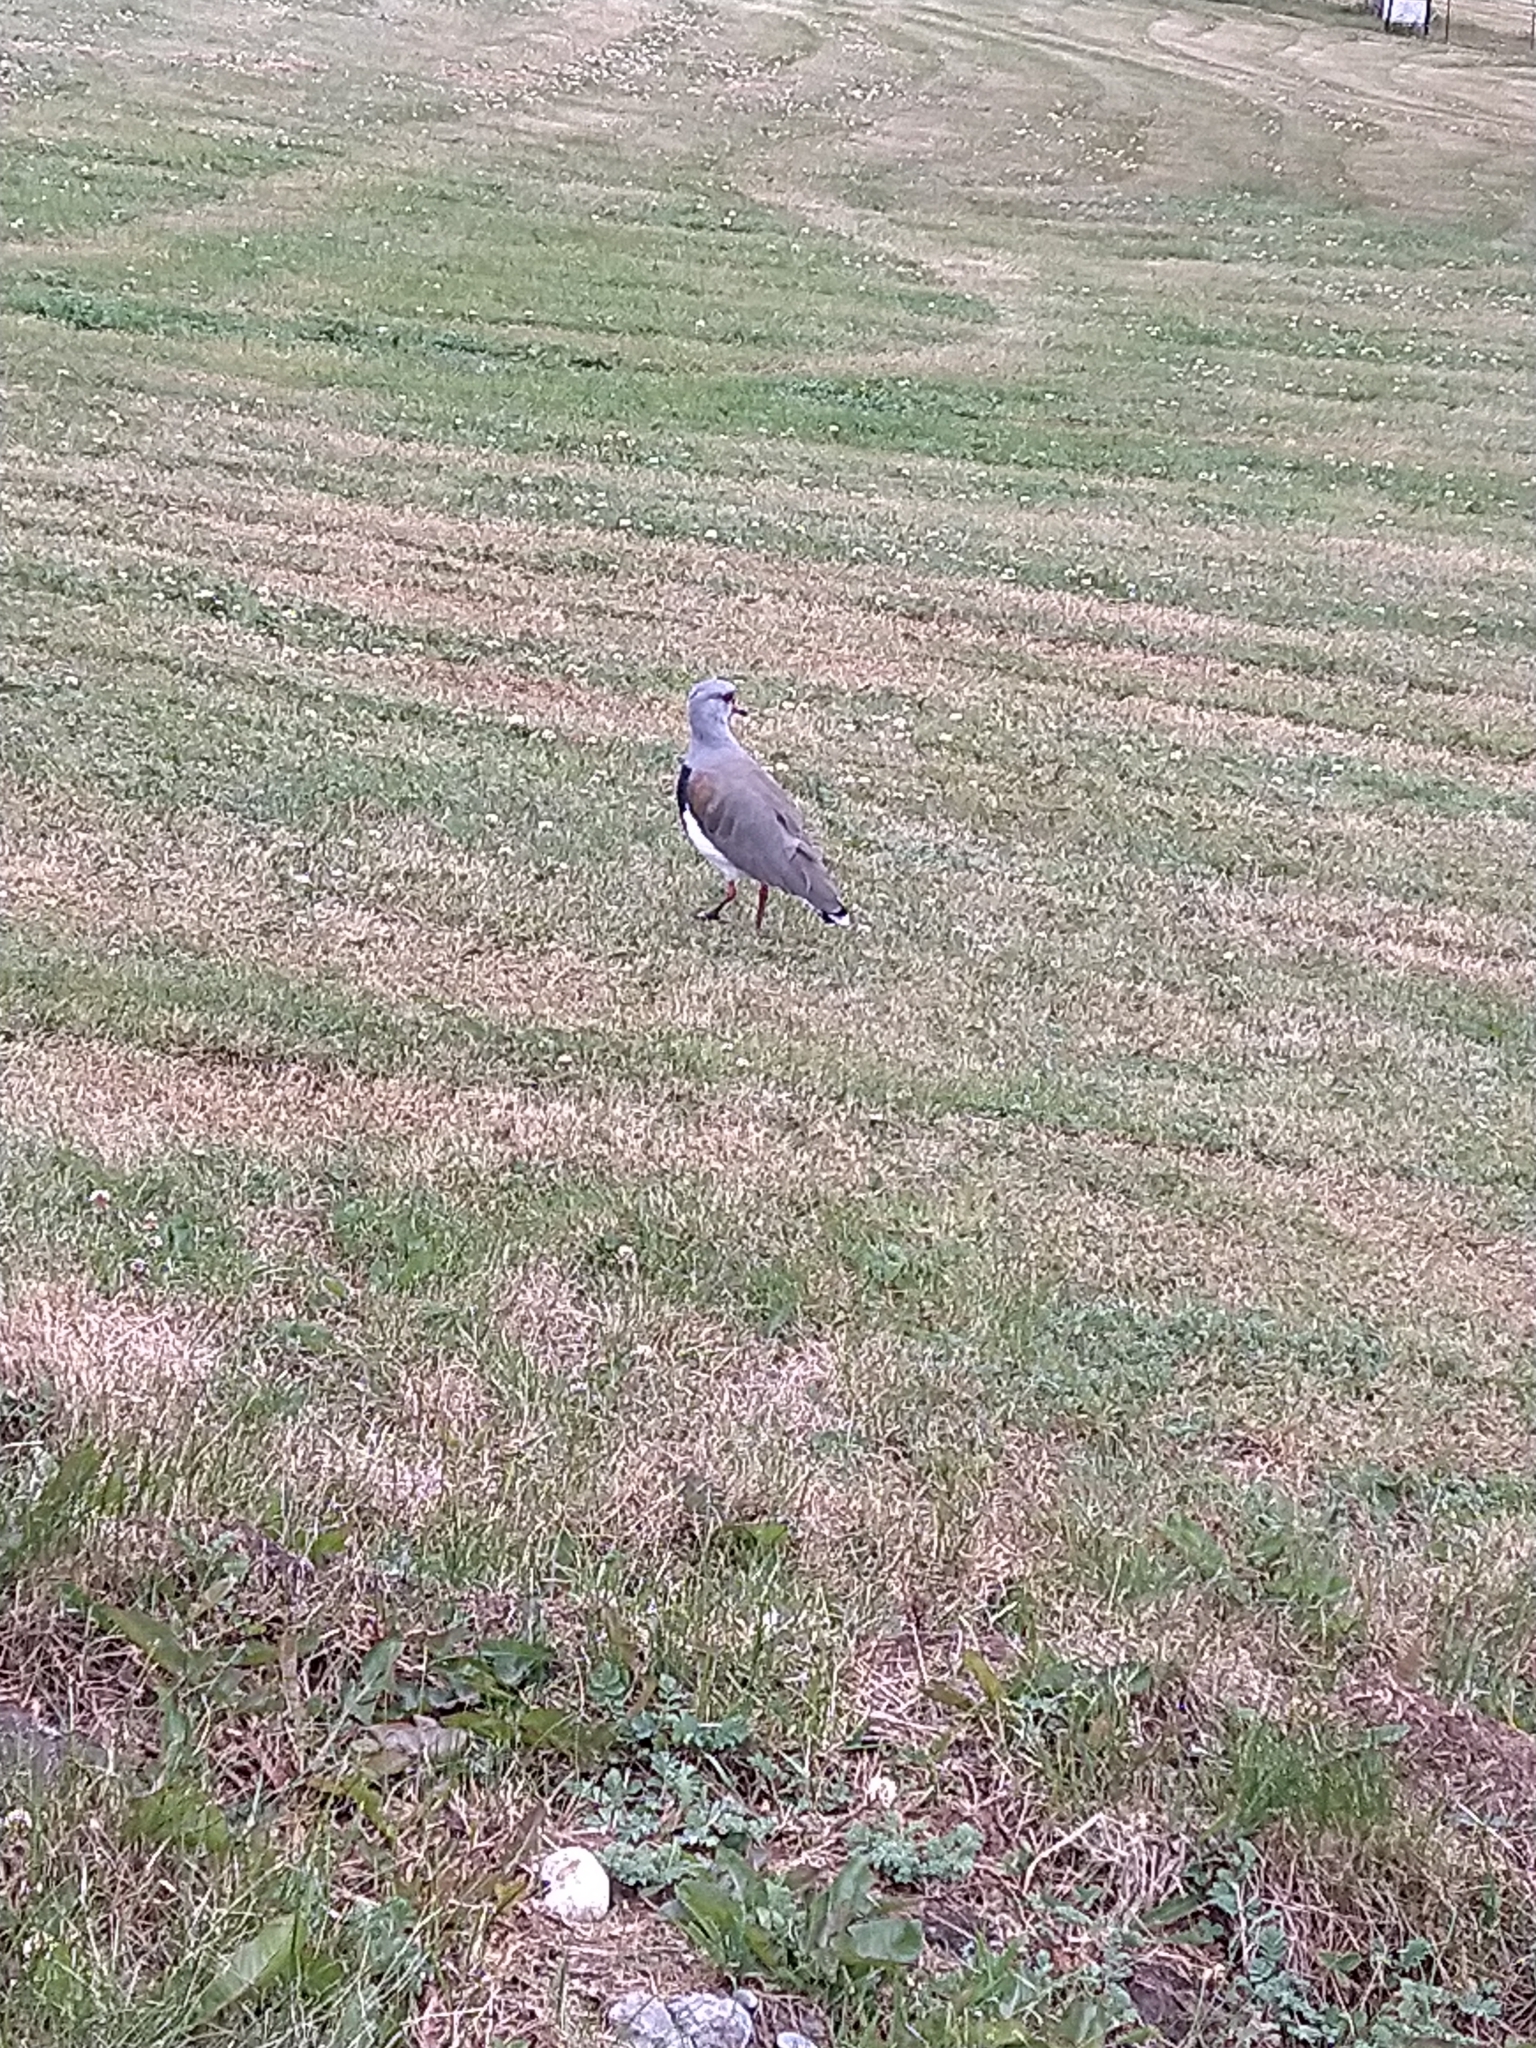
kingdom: Animalia
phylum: Chordata
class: Aves
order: Charadriiformes
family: Charadriidae
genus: Vanellus
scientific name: Vanellus chilensis
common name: Southern lapwing
